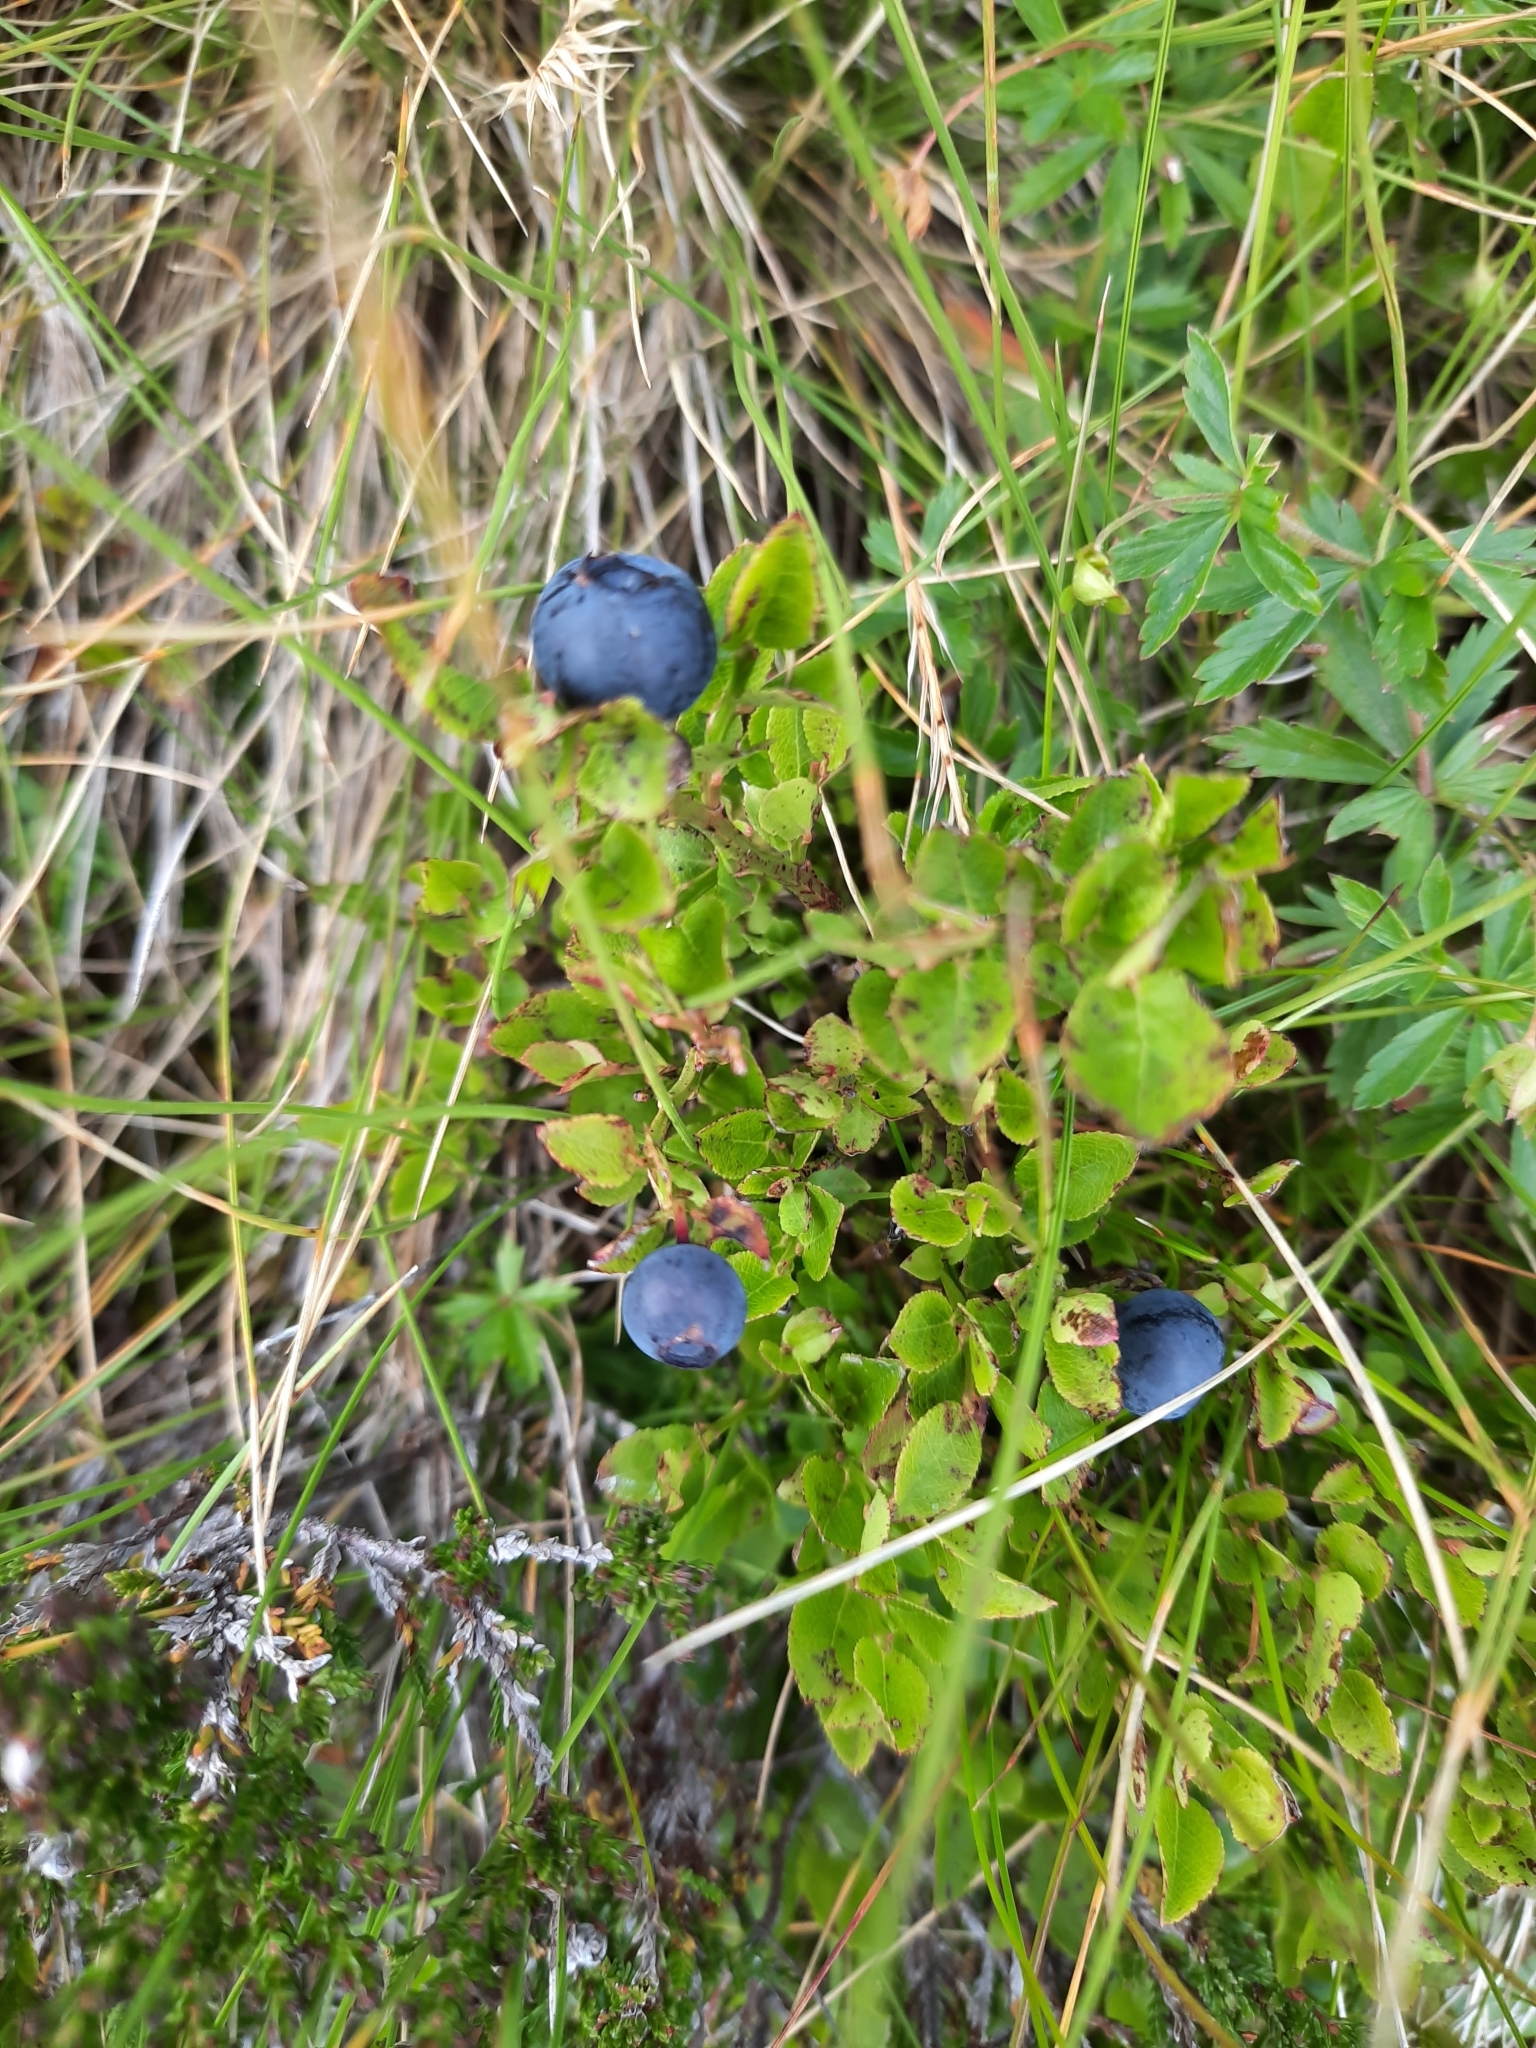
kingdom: Plantae
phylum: Tracheophyta
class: Magnoliopsida
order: Ericales
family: Ericaceae
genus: Vaccinium
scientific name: Vaccinium myrtillus
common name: Bilberry
